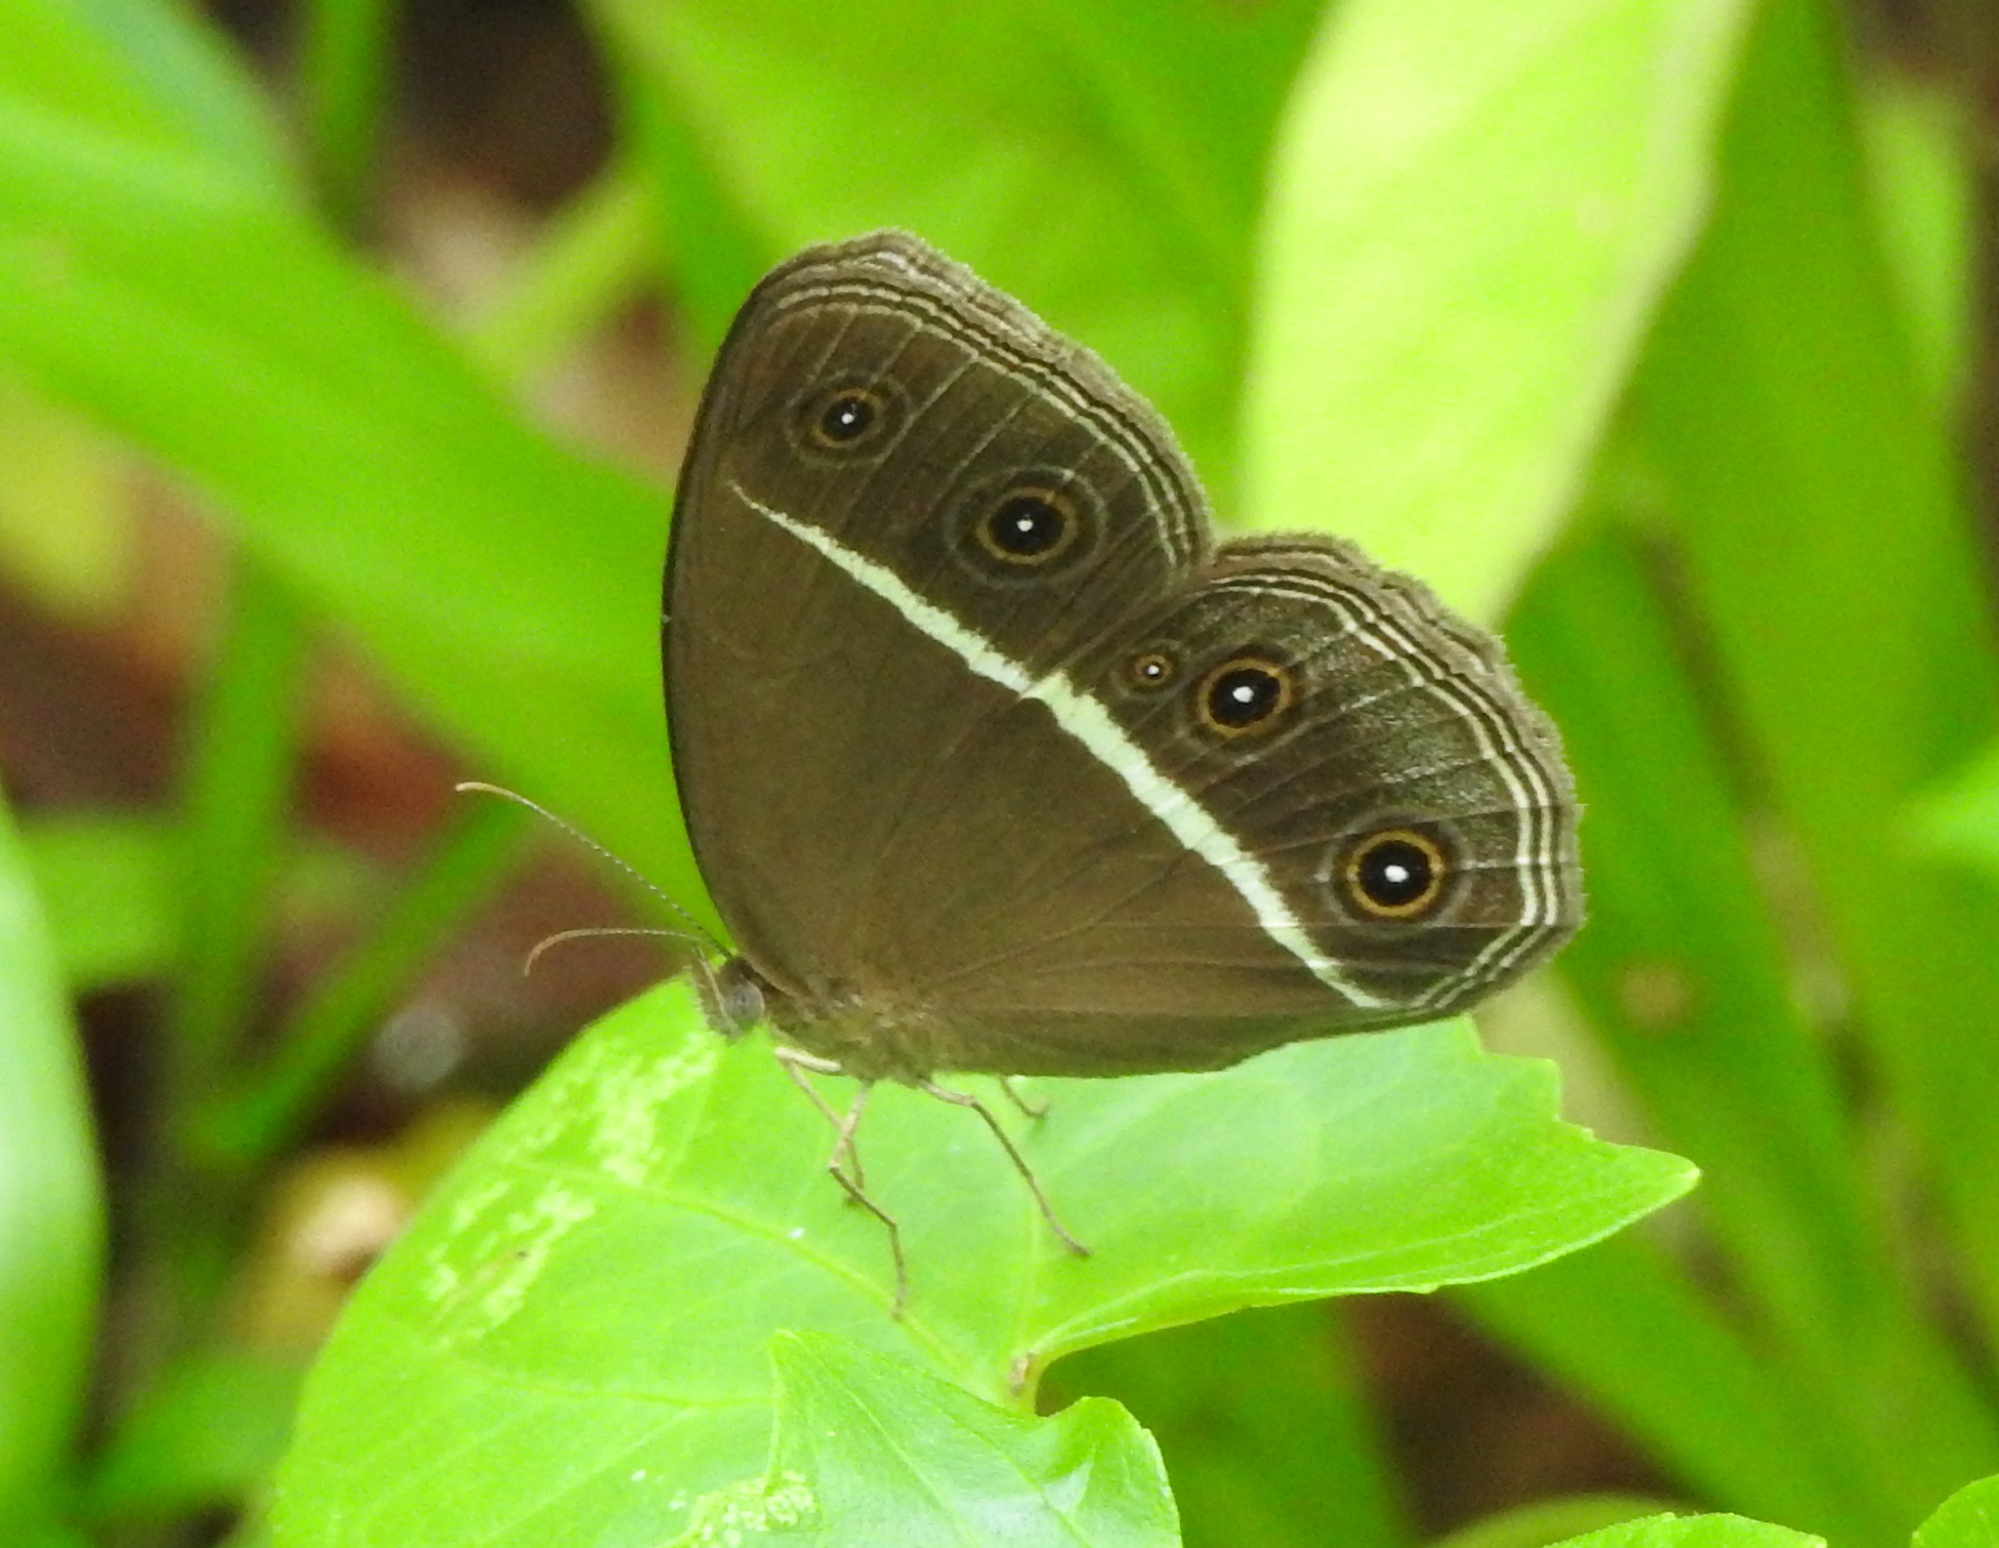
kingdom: Animalia
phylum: Arthropoda
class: Insecta
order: Lepidoptera
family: Nymphalidae
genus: Orsotriaena
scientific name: Orsotriaena medus
